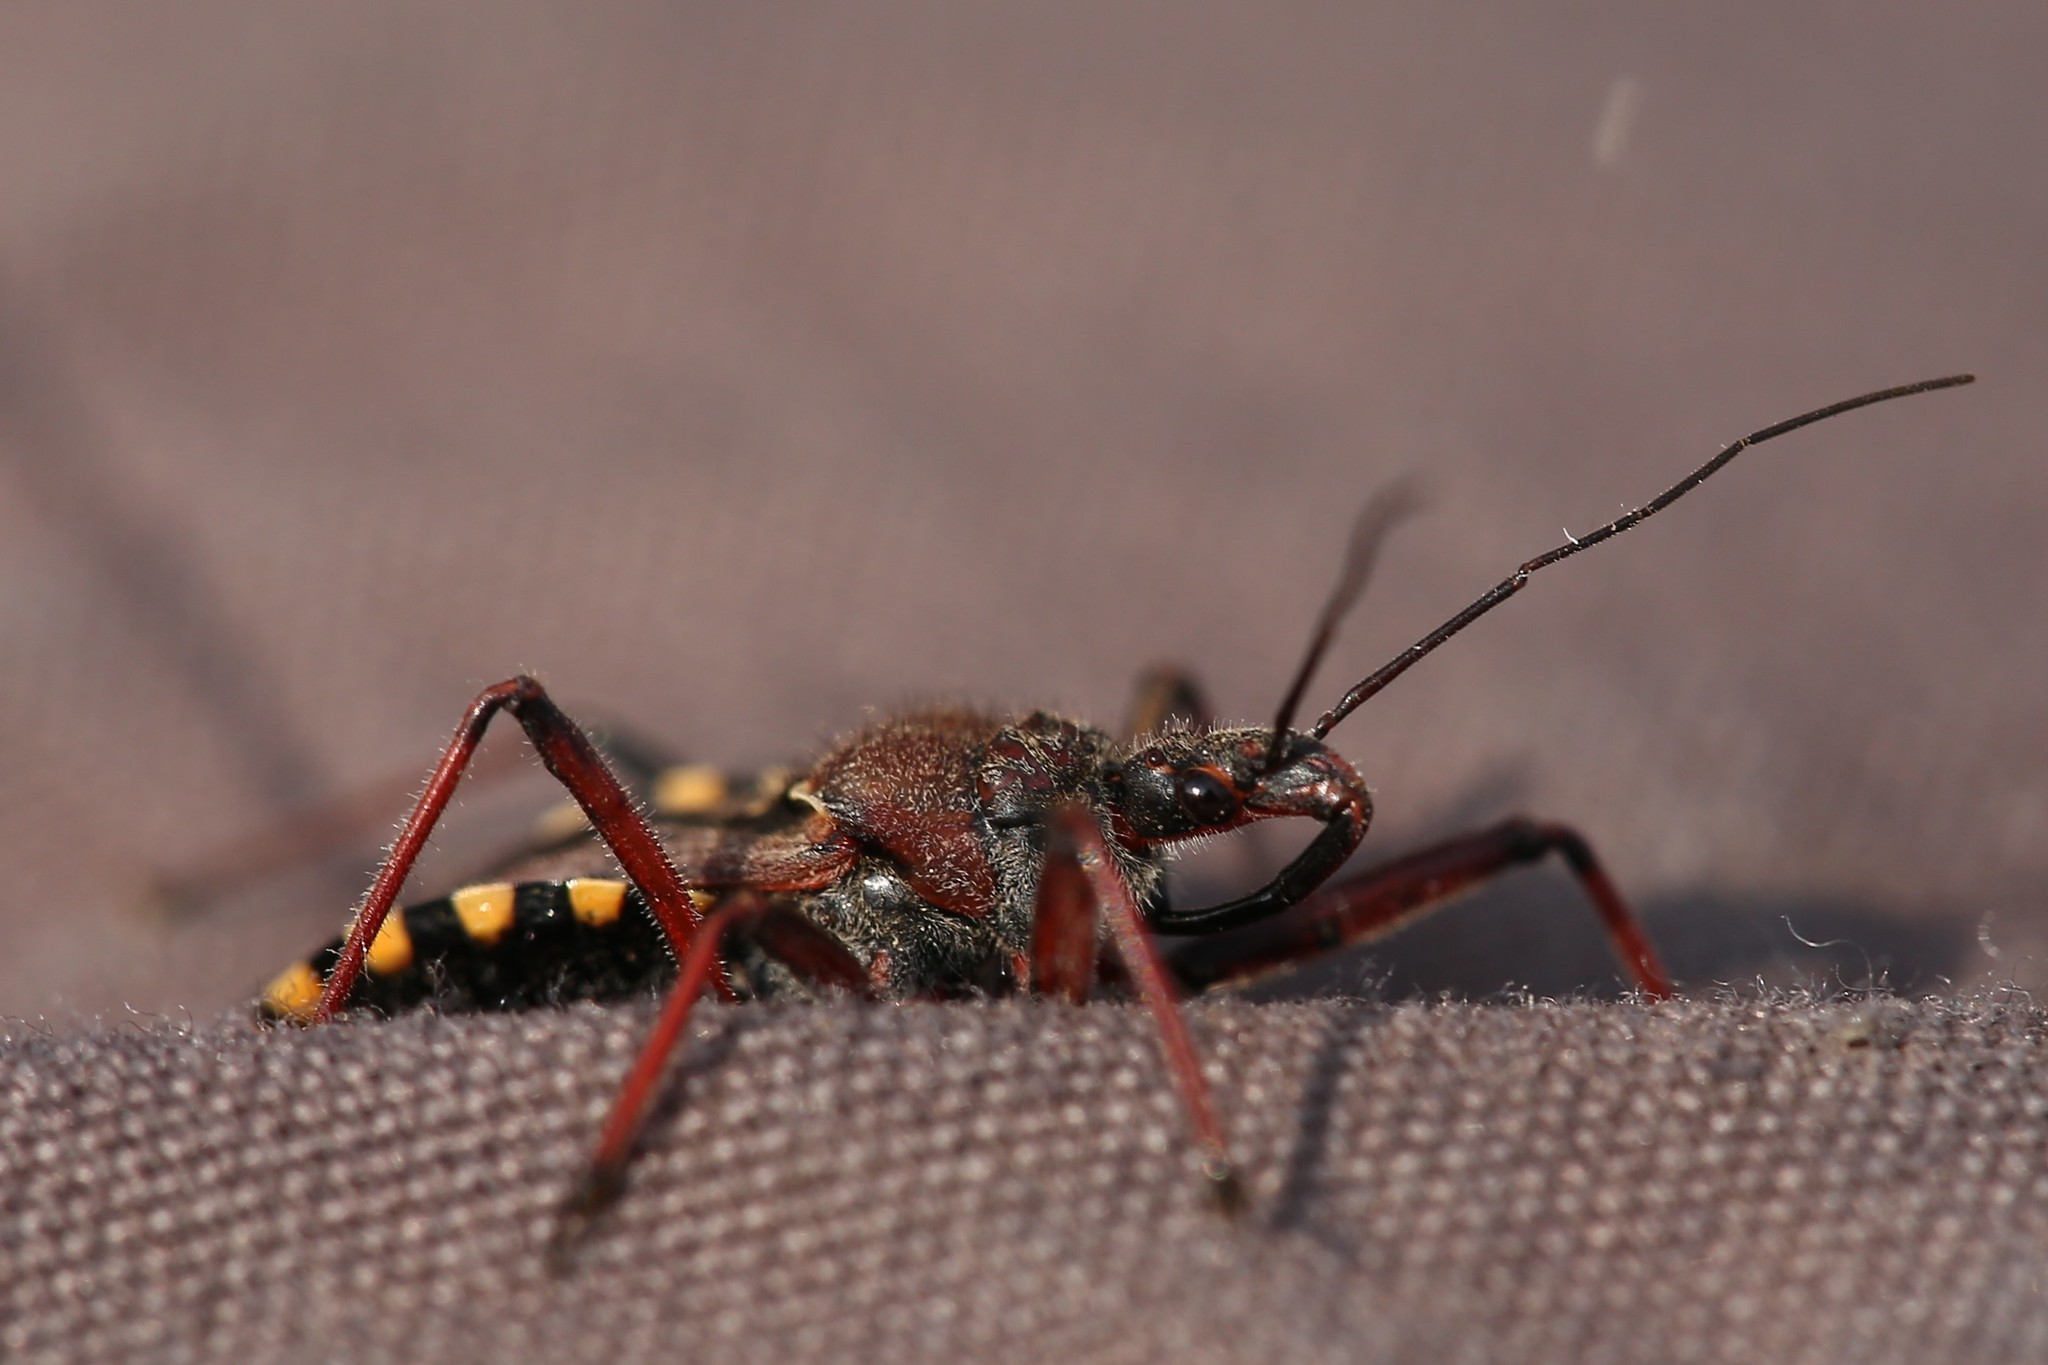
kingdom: Animalia
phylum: Arthropoda
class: Insecta
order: Hemiptera
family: Reduviidae
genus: Rhynocoris
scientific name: Rhynocoris erythropus
